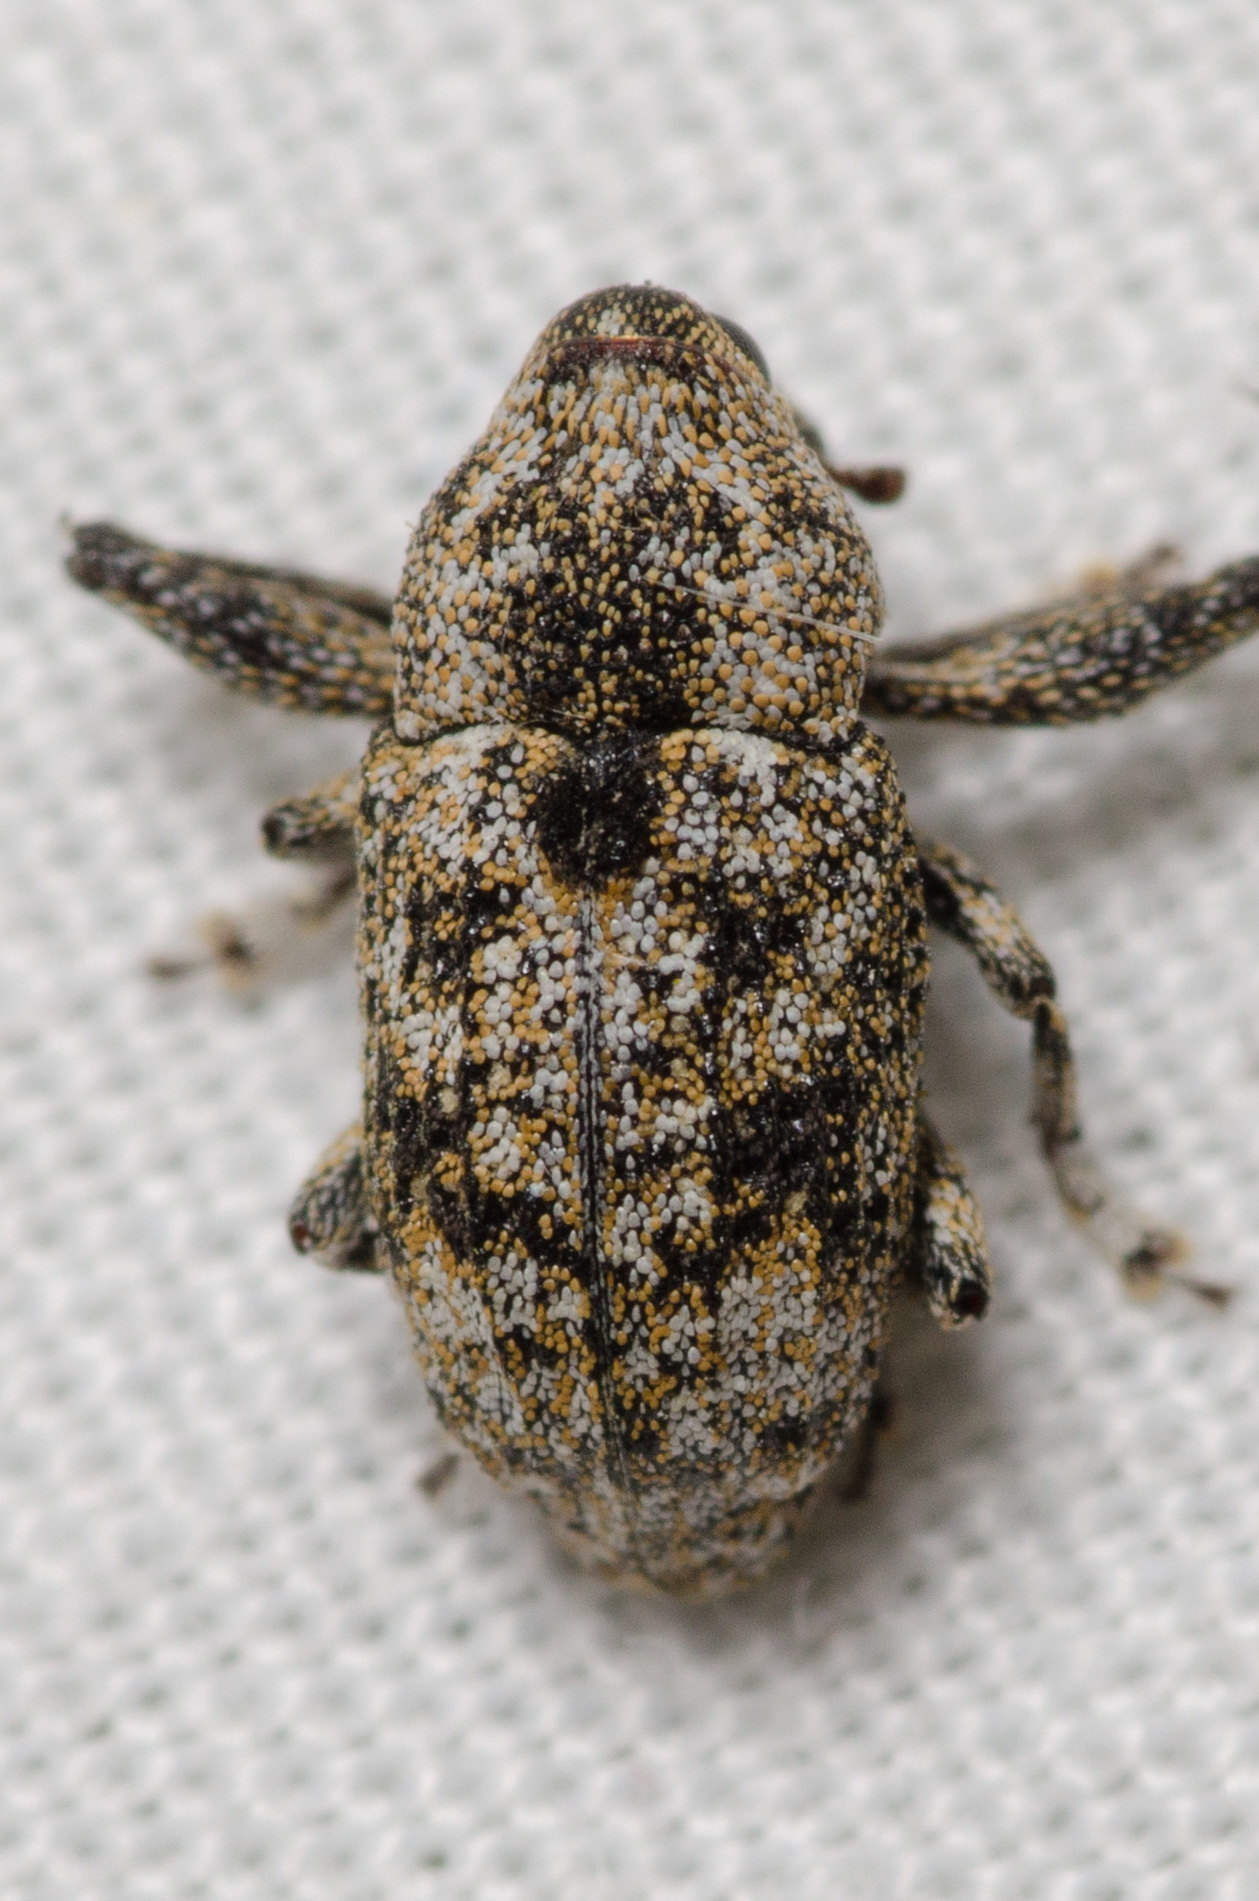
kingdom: Animalia
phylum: Arthropoda
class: Insecta
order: Coleoptera
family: Curculionidae
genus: Episcirrus
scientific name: Episcirrus brachialis
